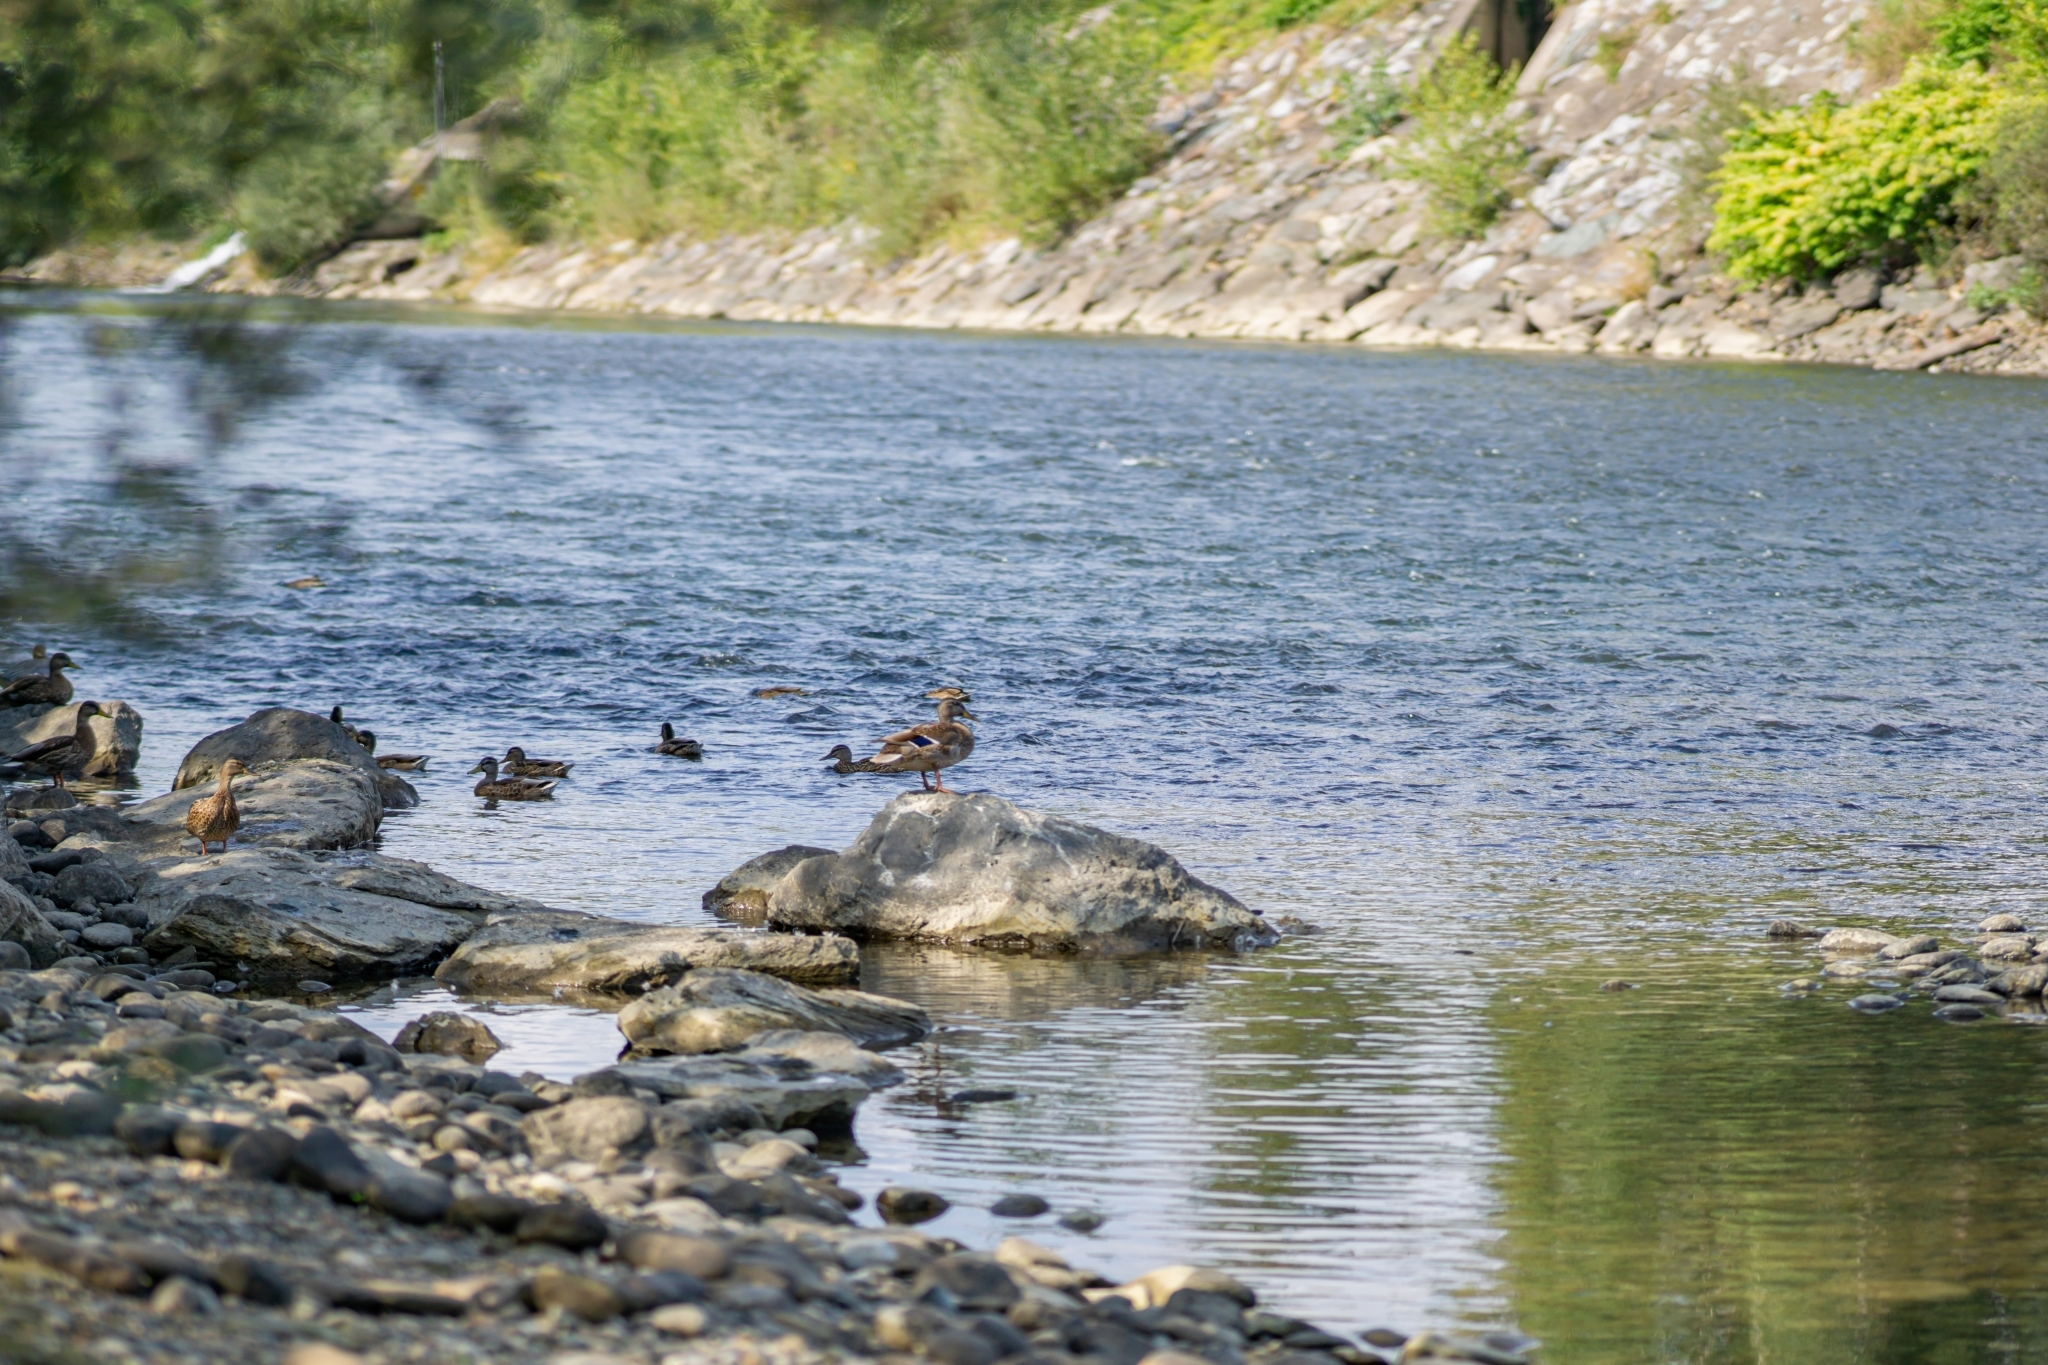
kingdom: Animalia
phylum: Chordata
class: Aves
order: Anseriformes
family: Anatidae
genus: Anas
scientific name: Anas platyrhynchos
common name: Mallard
